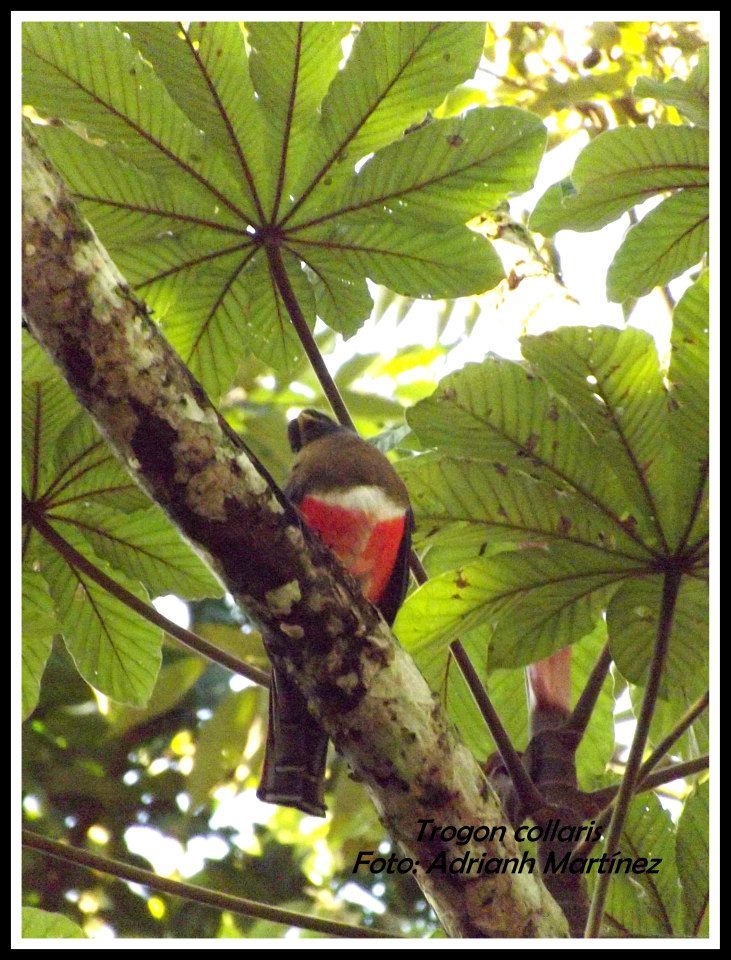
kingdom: Animalia
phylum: Chordata
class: Aves
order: Trogoniformes
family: Trogonidae
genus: Trogon
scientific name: Trogon collaris
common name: Collared trogon
